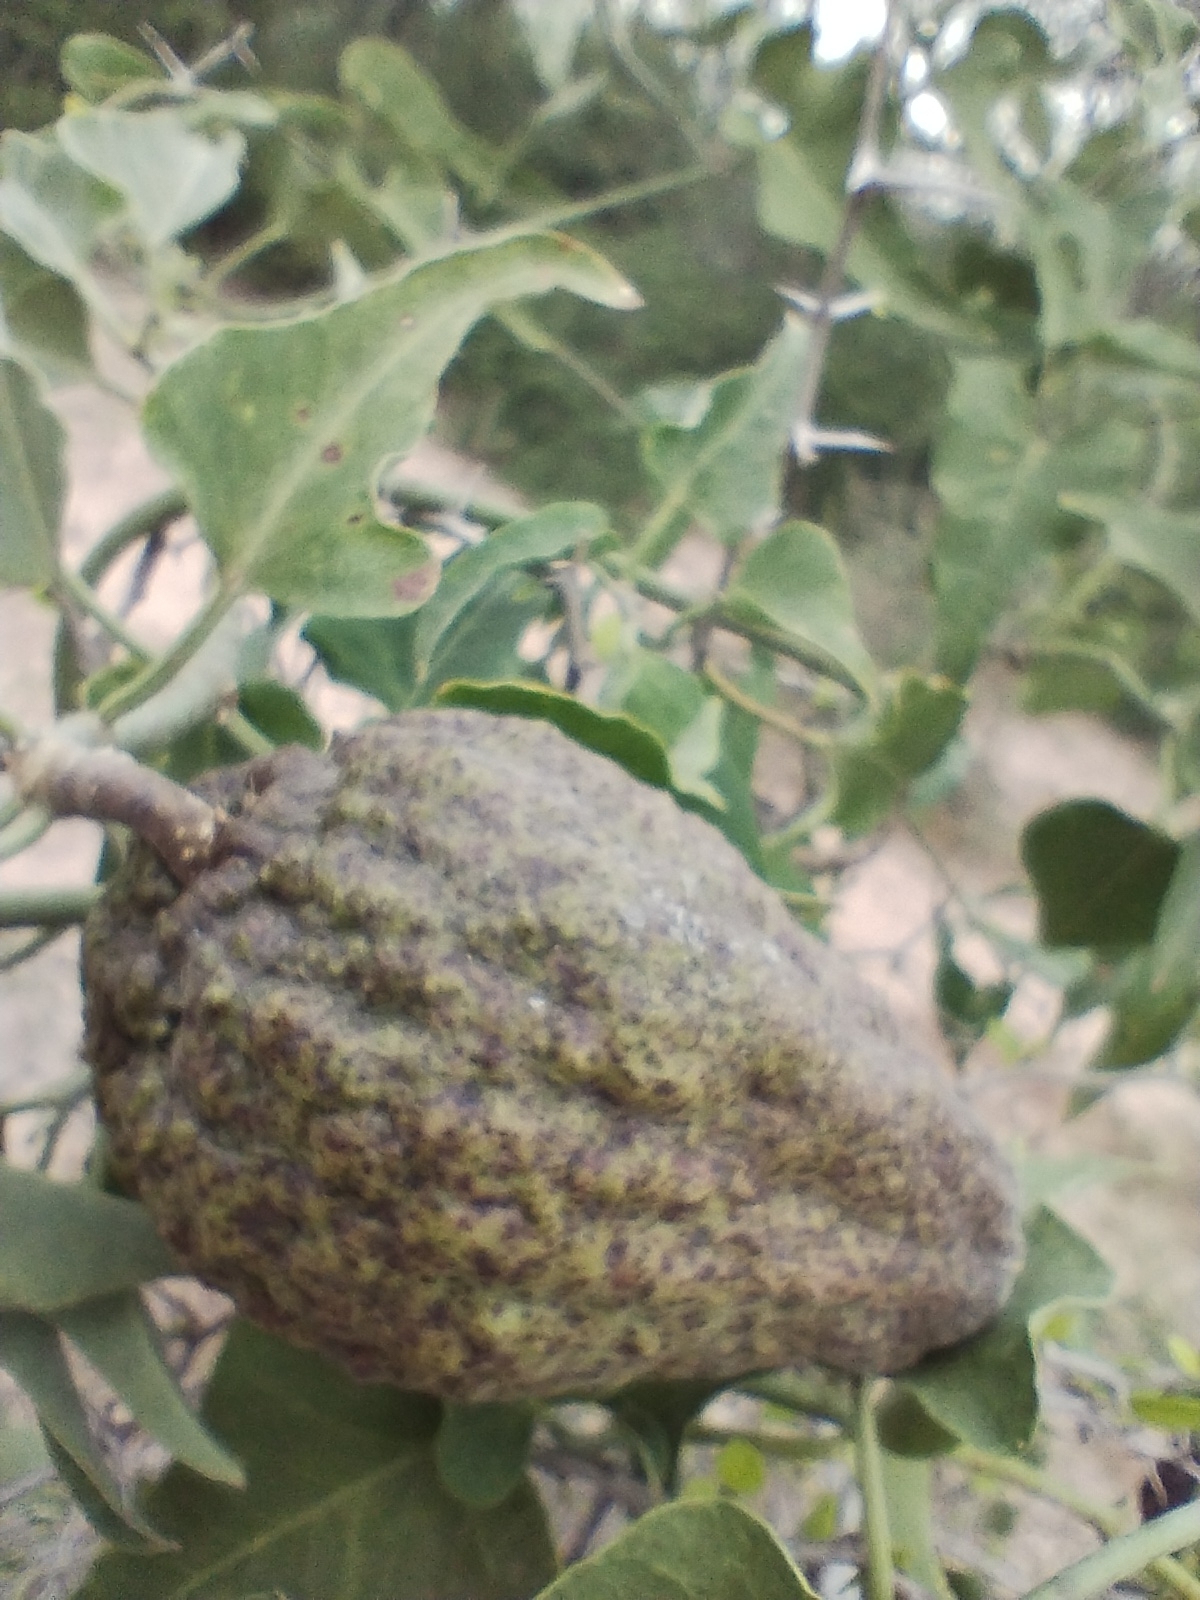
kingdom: Plantae
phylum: Tracheophyta
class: Magnoliopsida
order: Gentianales
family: Apocynaceae
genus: Araujia
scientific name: Araujia odorata
